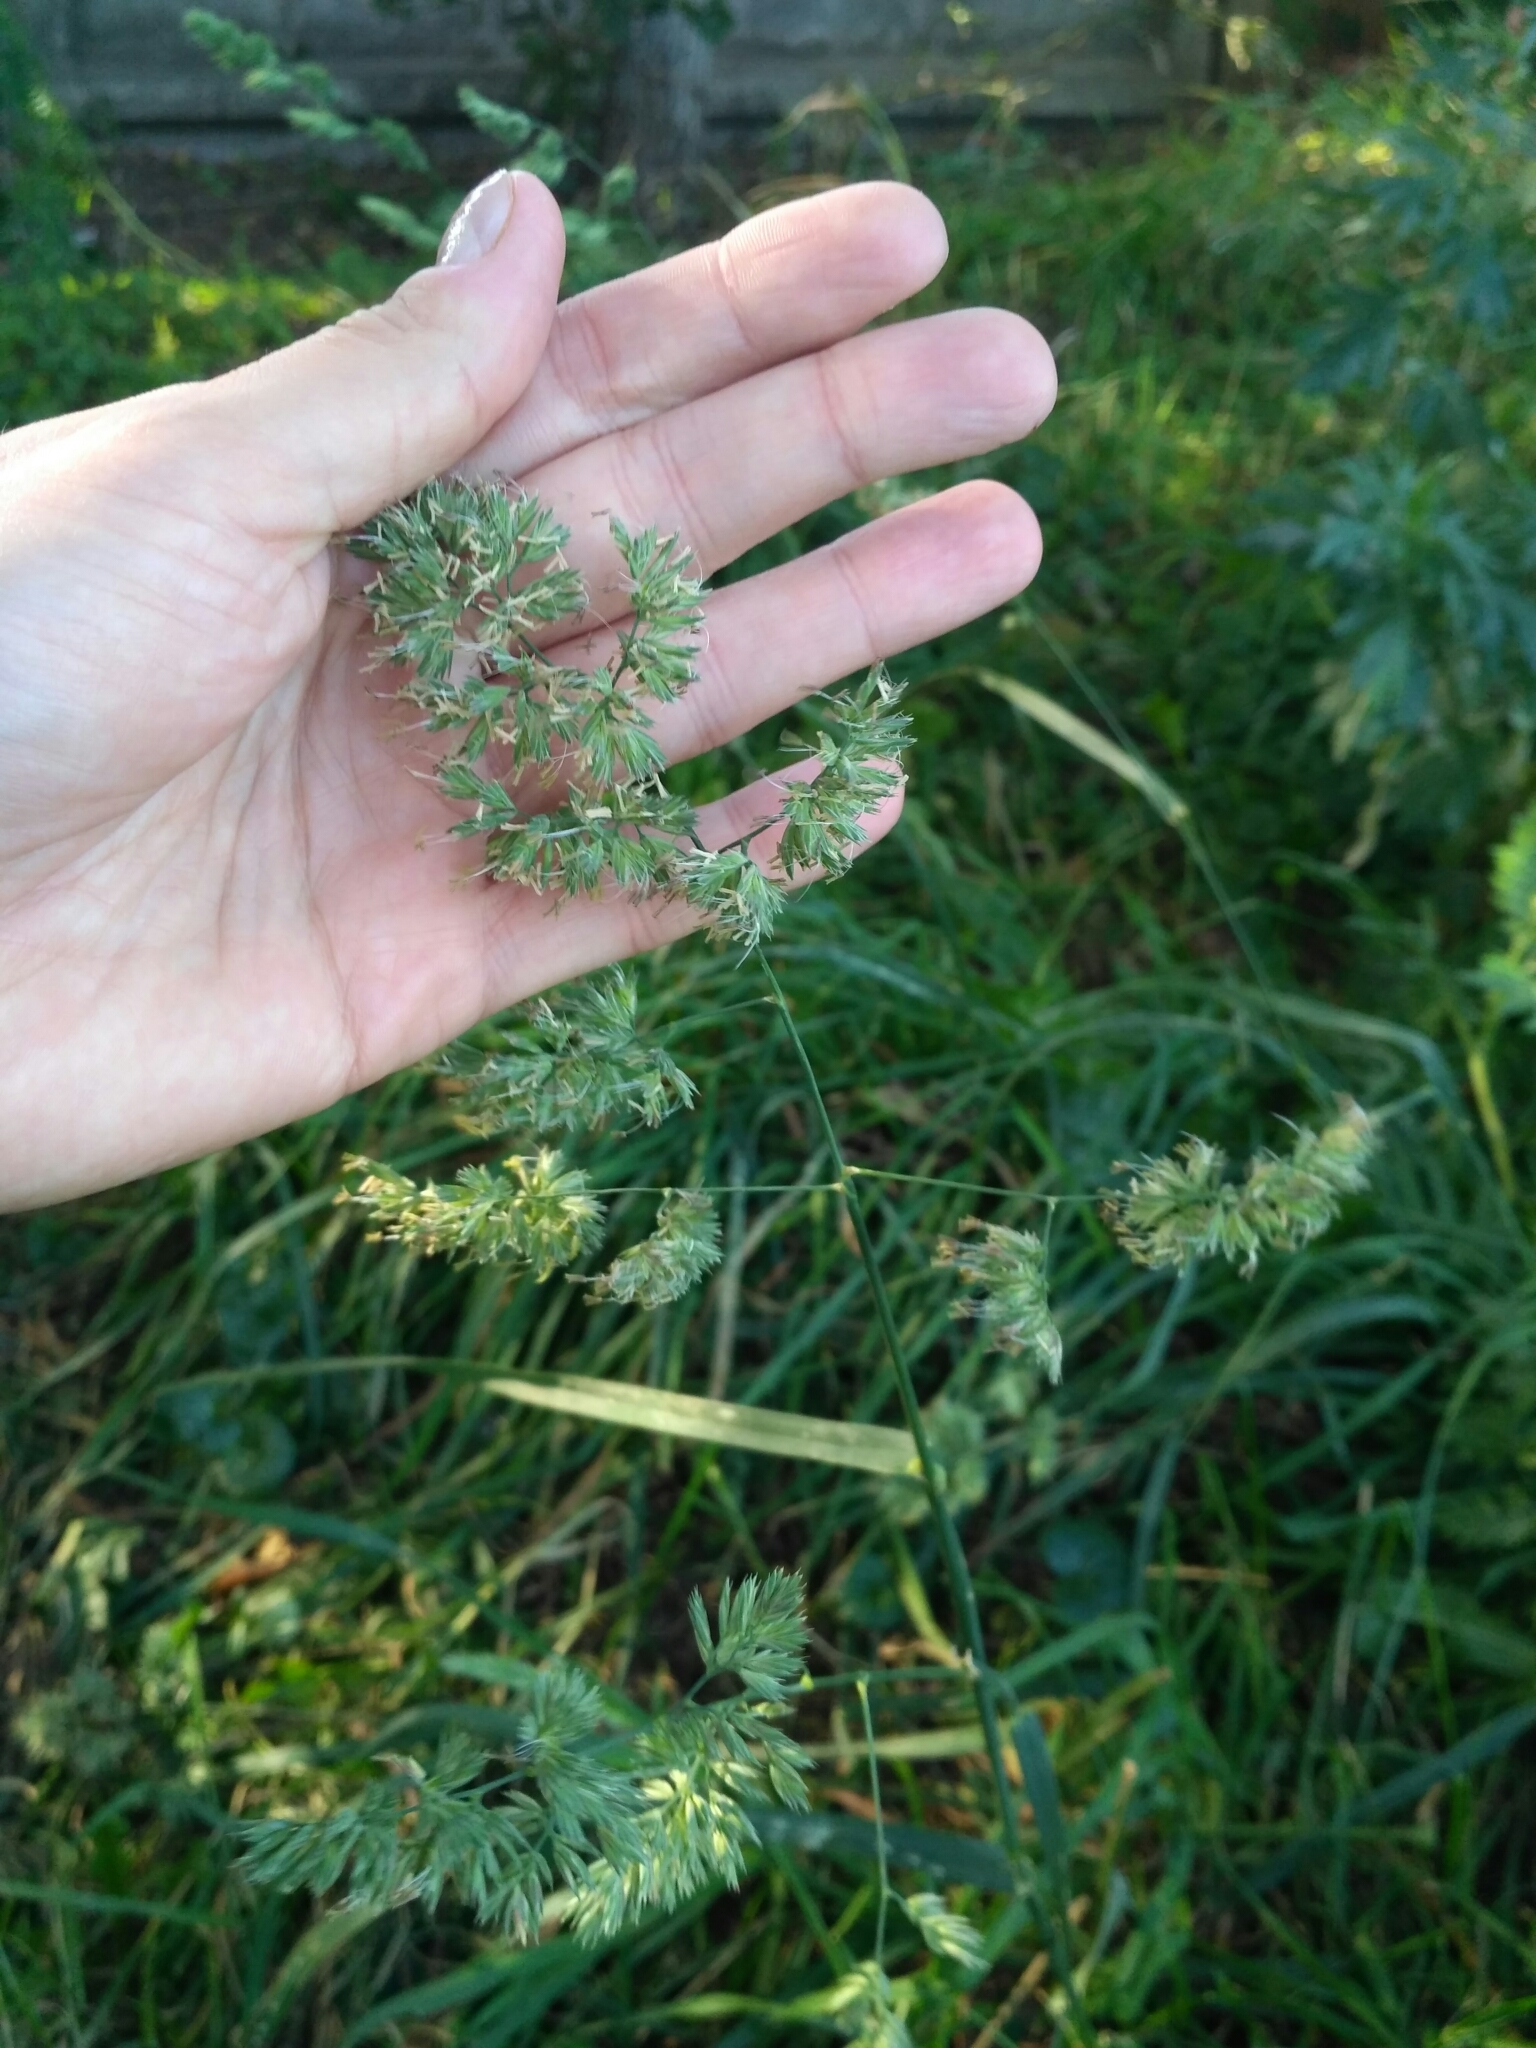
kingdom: Plantae
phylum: Tracheophyta
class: Liliopsida
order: Poales
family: Poaceae
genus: Dactylis
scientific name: Dactylis glomerata
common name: Orchardgrass
